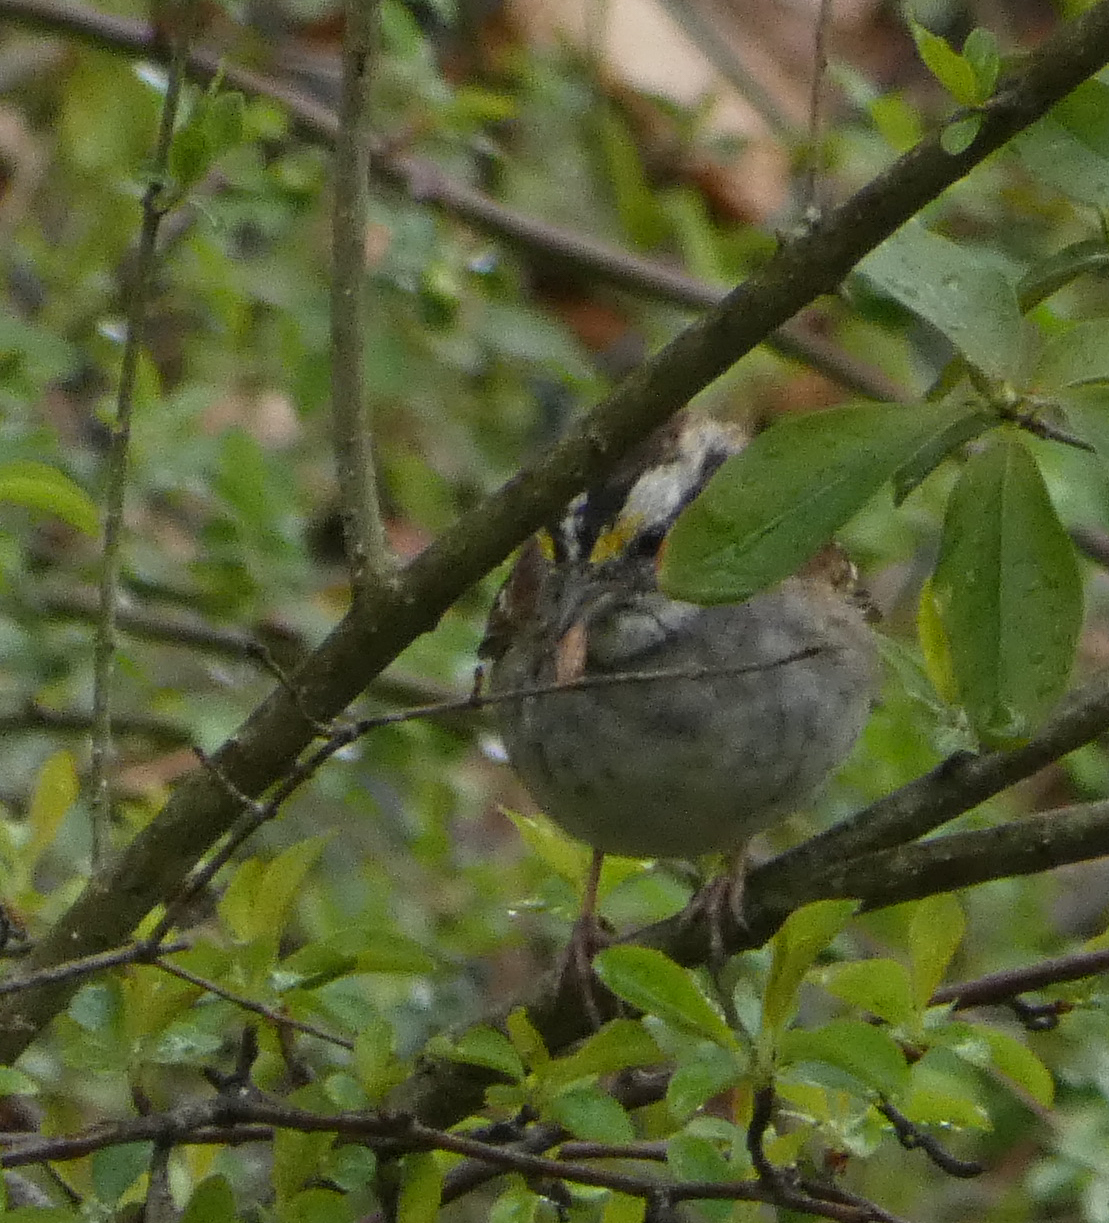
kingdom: Animalia
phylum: Chordata
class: Aves
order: Passeriformes
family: Passerellidae
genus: Zonotrichia
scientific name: Zonotrichia albicollis
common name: White-throated sparrow
